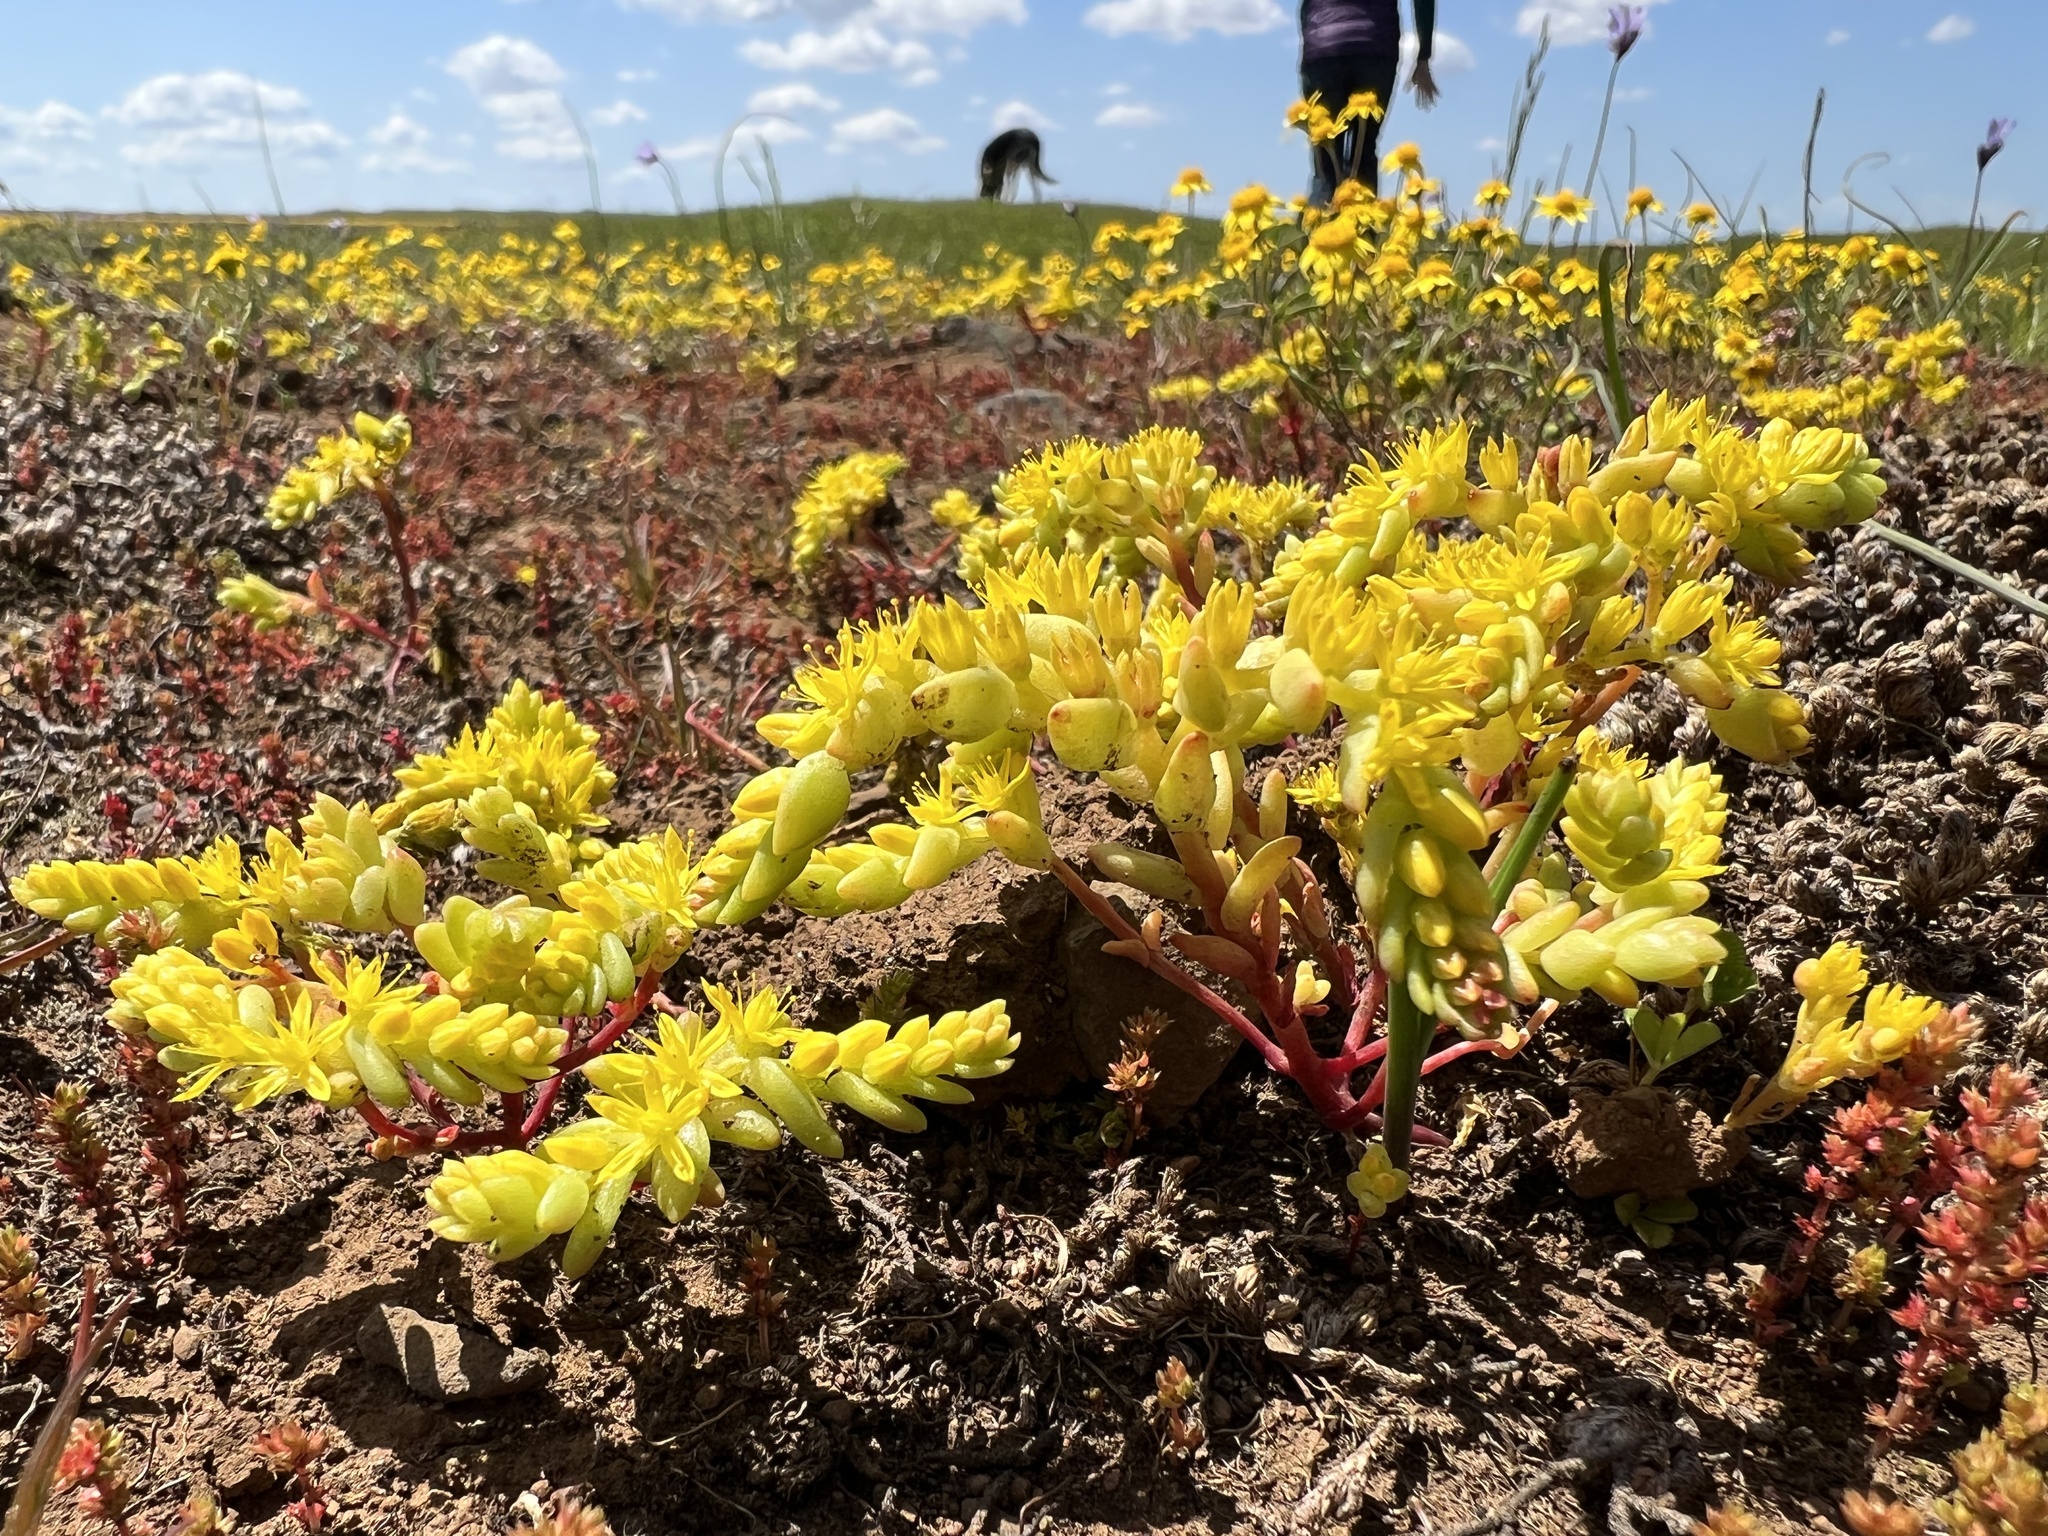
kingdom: Plantae
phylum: Tracheophyta
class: Magnoliopsida
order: Saxifragales
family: Crassulaceae
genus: Sedella
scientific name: Sedella pumila
